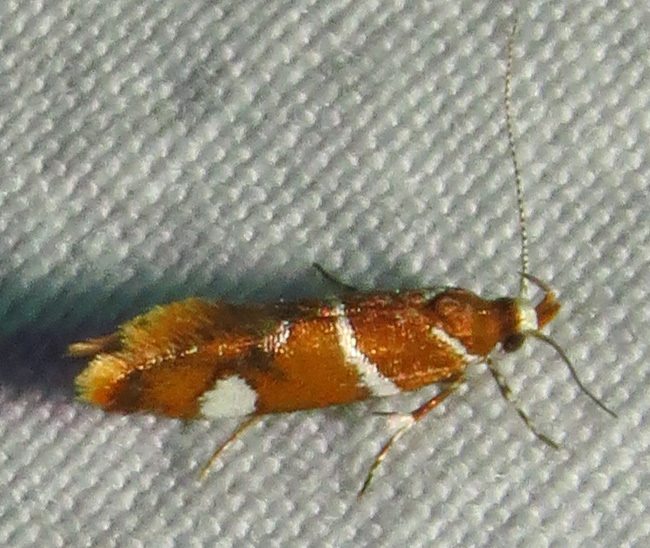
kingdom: Animalia
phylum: Arthropoda
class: Insecta
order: Lepidoptera
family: Oecophoridae
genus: Promalactis
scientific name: Promalactis suzukiella
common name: Moth
